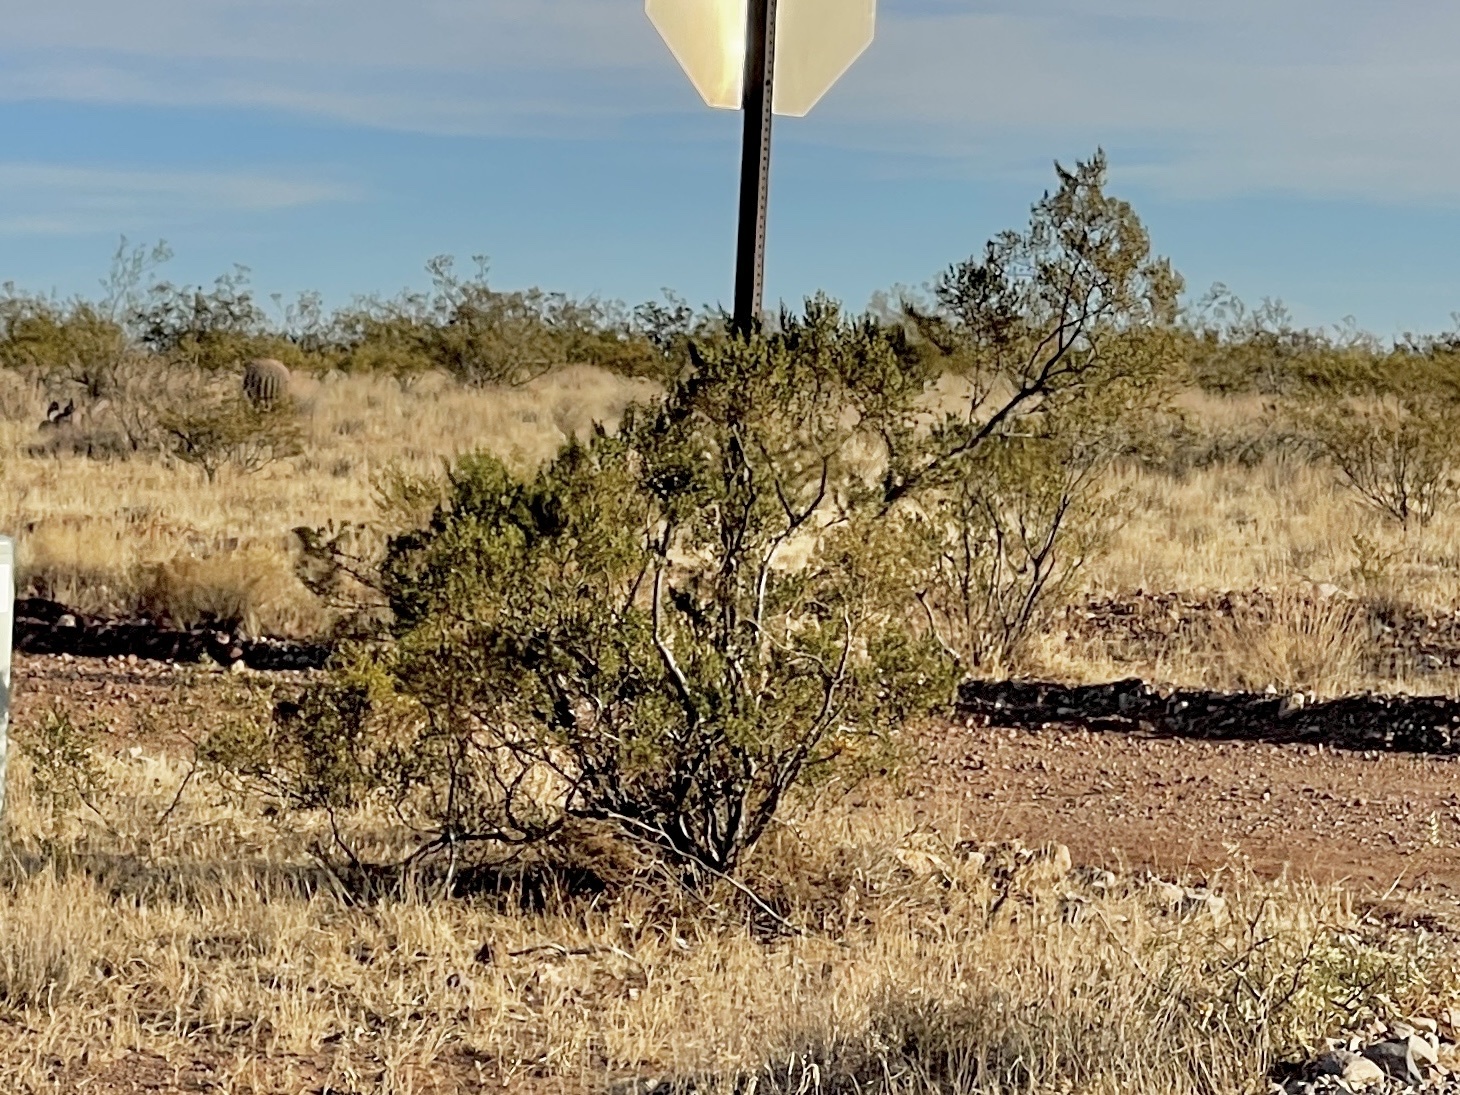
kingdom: Plantae
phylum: Tracheophyta
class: Magnoliopsida
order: Zygophyllales
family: Zygophyllaceae
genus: Larrea
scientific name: Larrea tridentata
